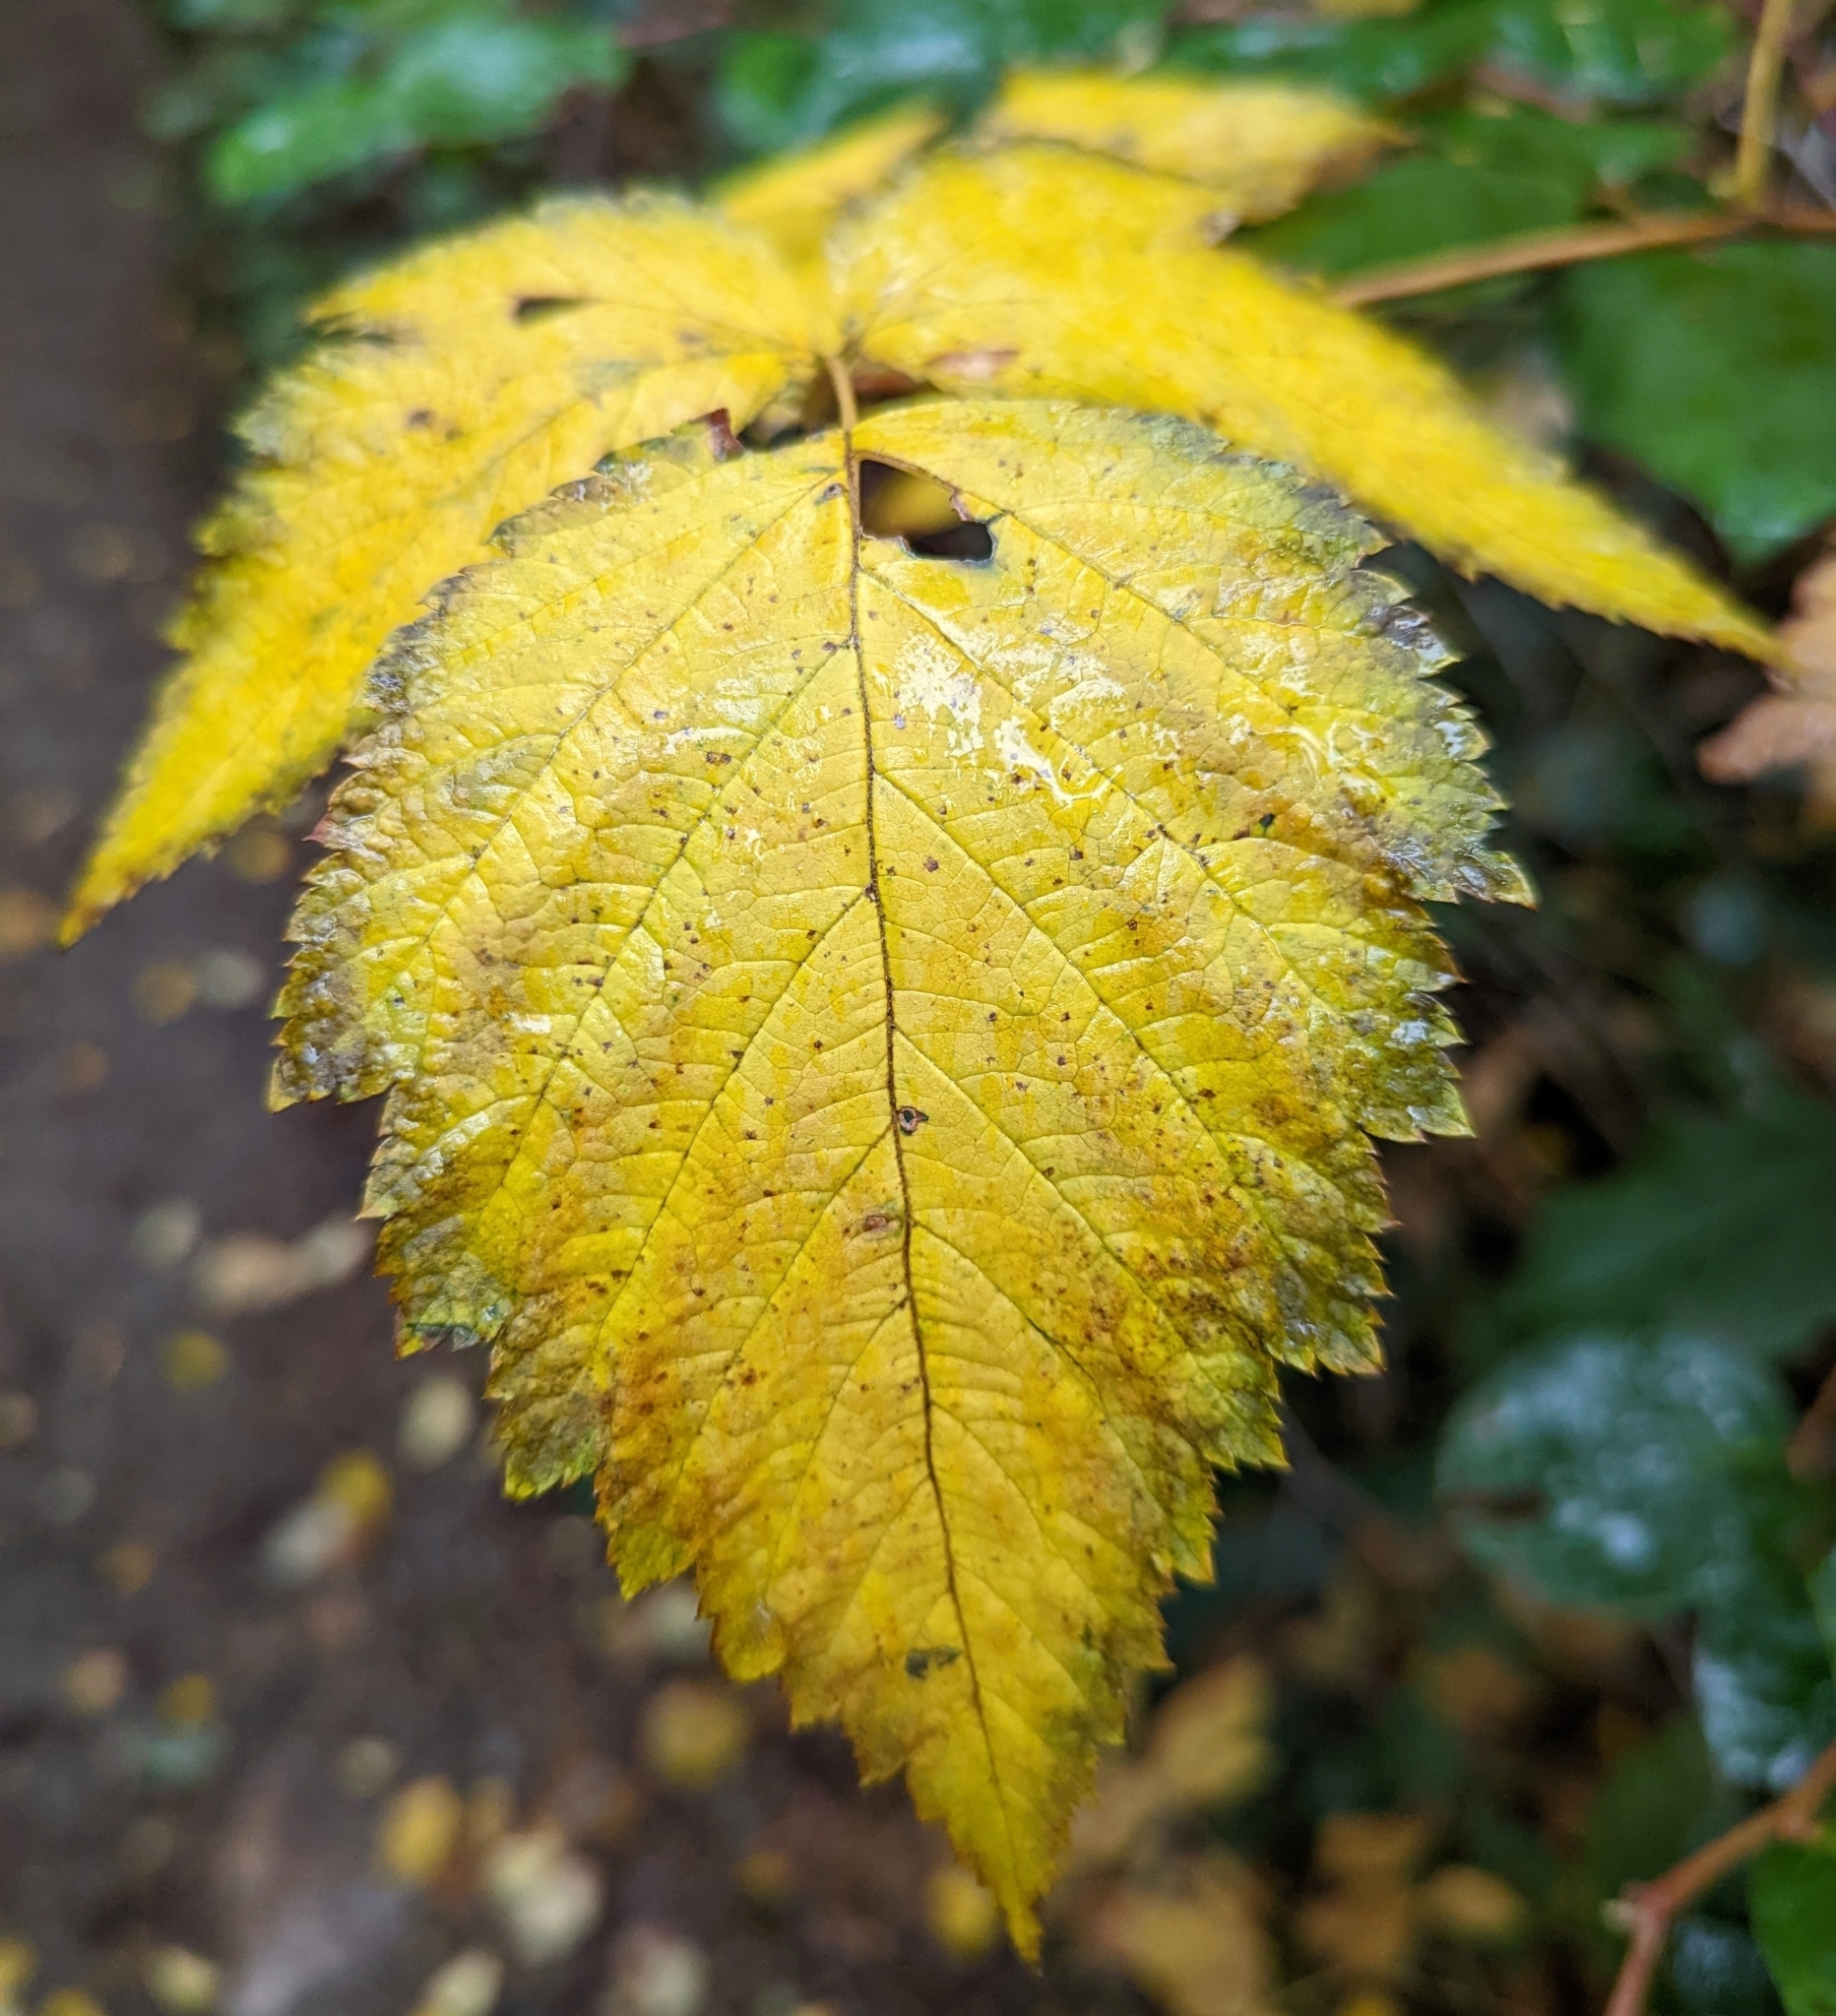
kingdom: Plantae
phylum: Tracheophyta
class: Magnoliopsida
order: Rosales
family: Rosaceae
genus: Rubus
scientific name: Rubus spectabilis
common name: Salmonberry
